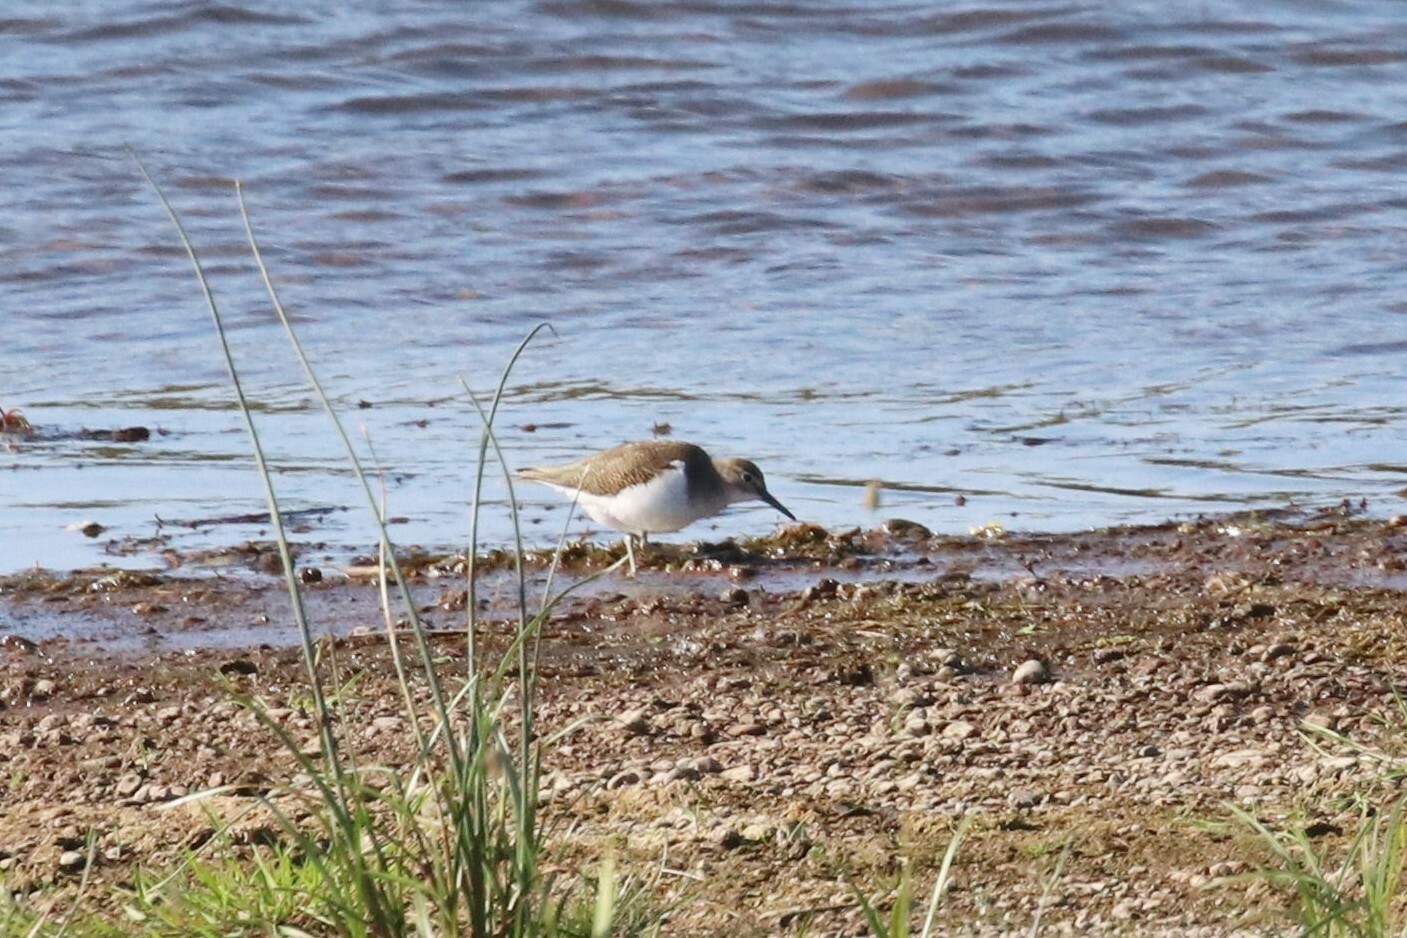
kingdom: Animalia
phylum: Chordata
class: Aves
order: Charadriiformes
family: Scolopacidae
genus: Actitis
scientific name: Actitis hypoleucos
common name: Common sandpiper
